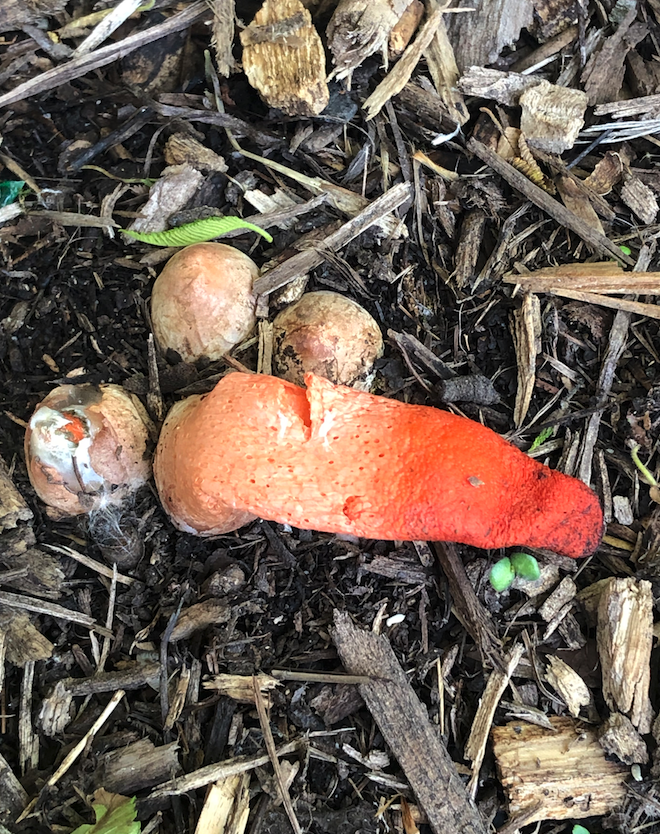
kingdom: Fungi
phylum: Basidiomycota
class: Agaricomycetes
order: Phallales
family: Phallaceae
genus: Mutinus
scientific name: Mutinus elegans
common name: Devil's dipstick
